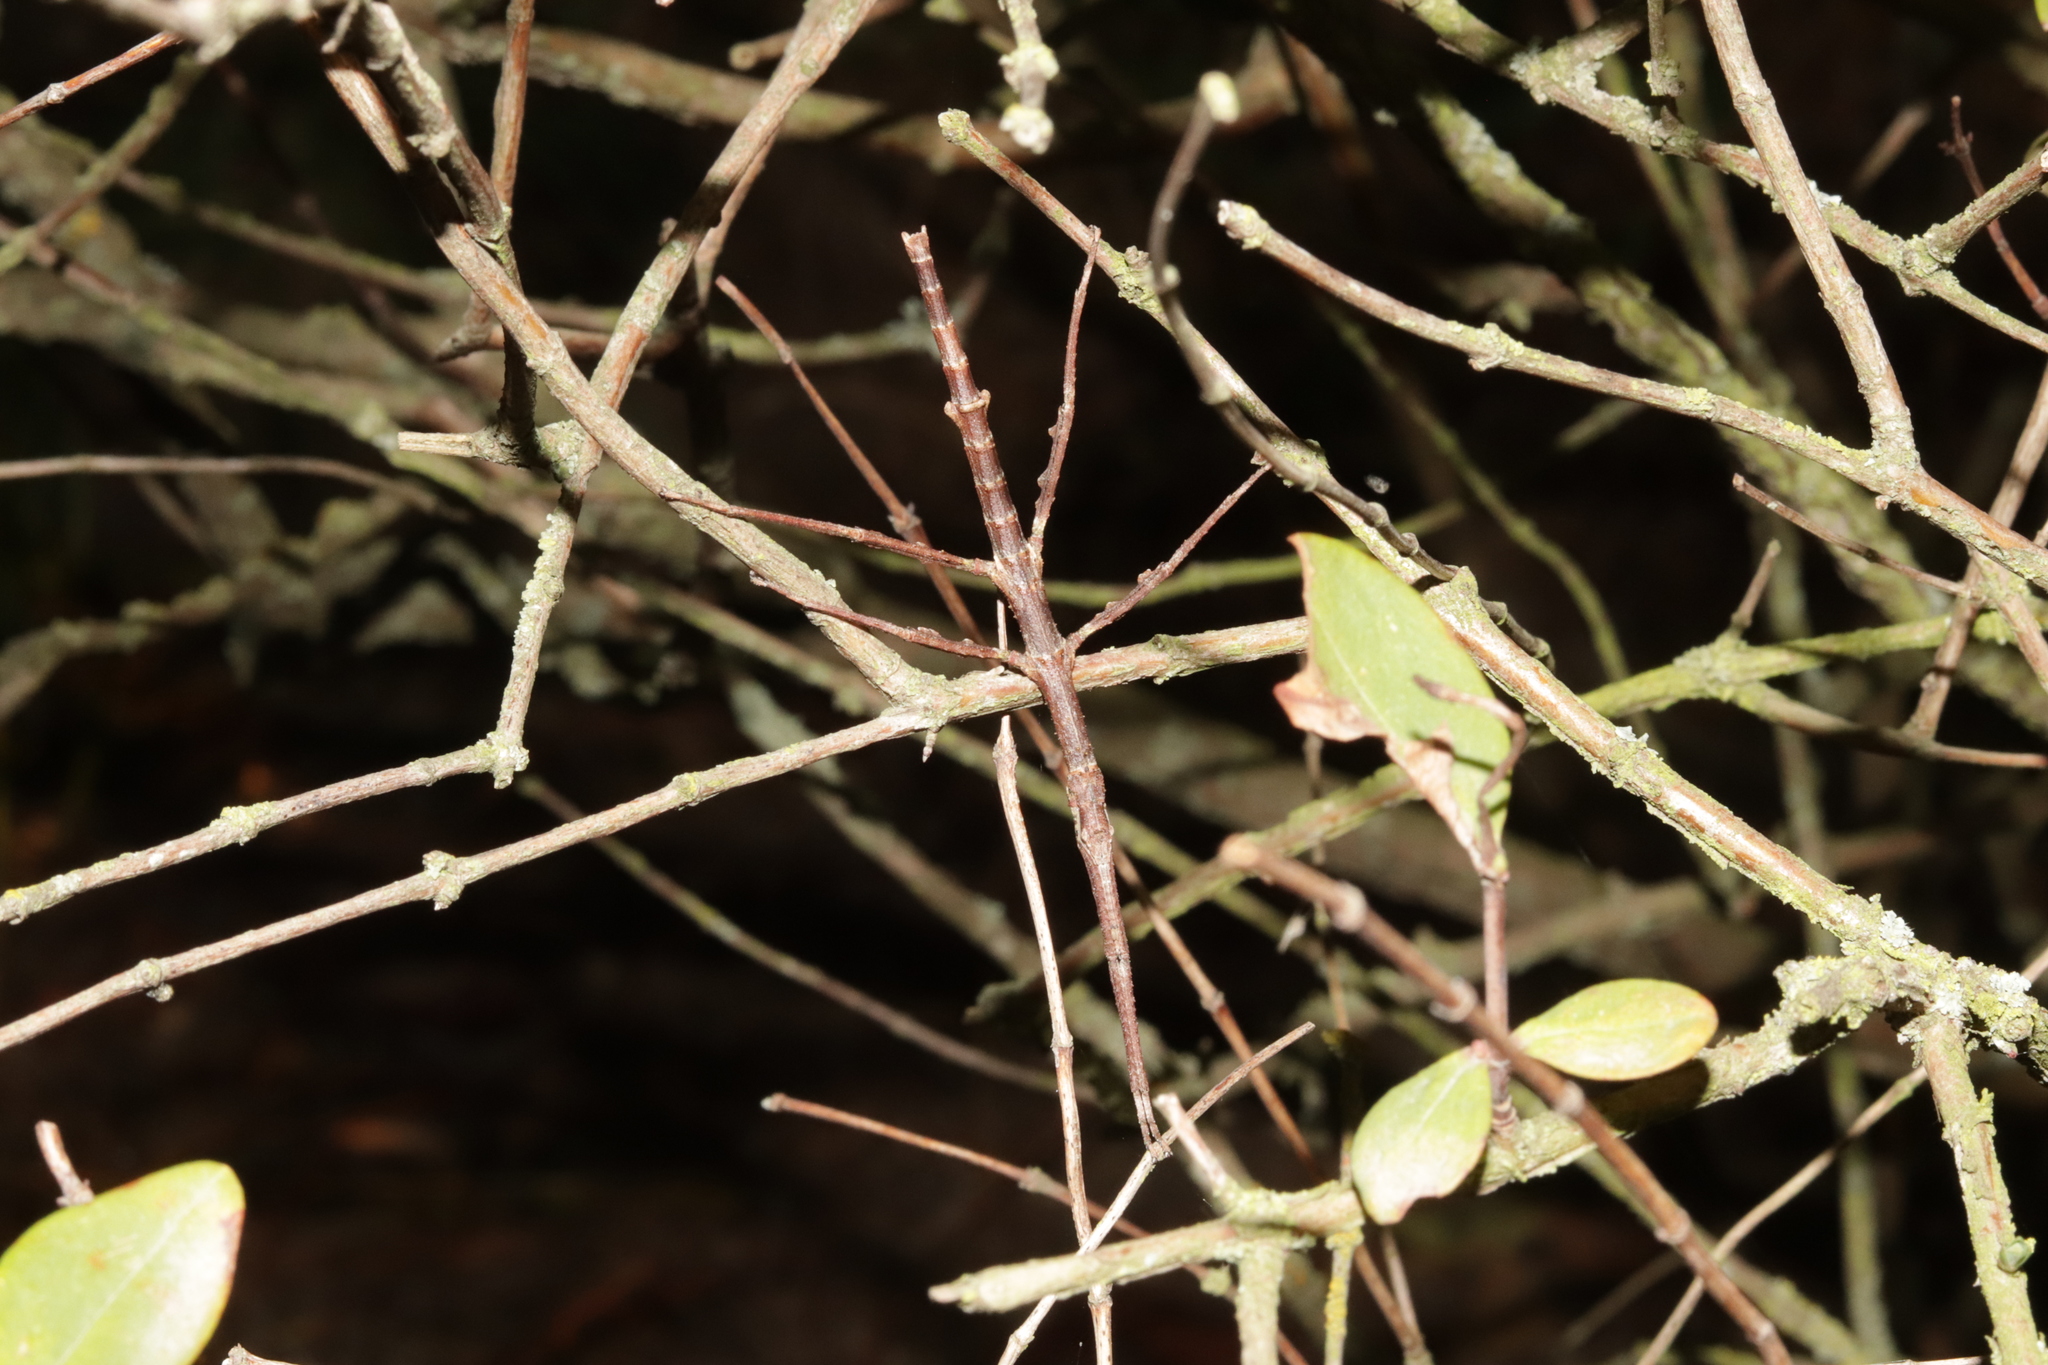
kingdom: Animalia
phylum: Arthropoda
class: Insecta
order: Phasmida
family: Phasmatidae
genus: Niveaphasma
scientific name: Niveaphasma annulatum
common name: Hutton's stick insect
